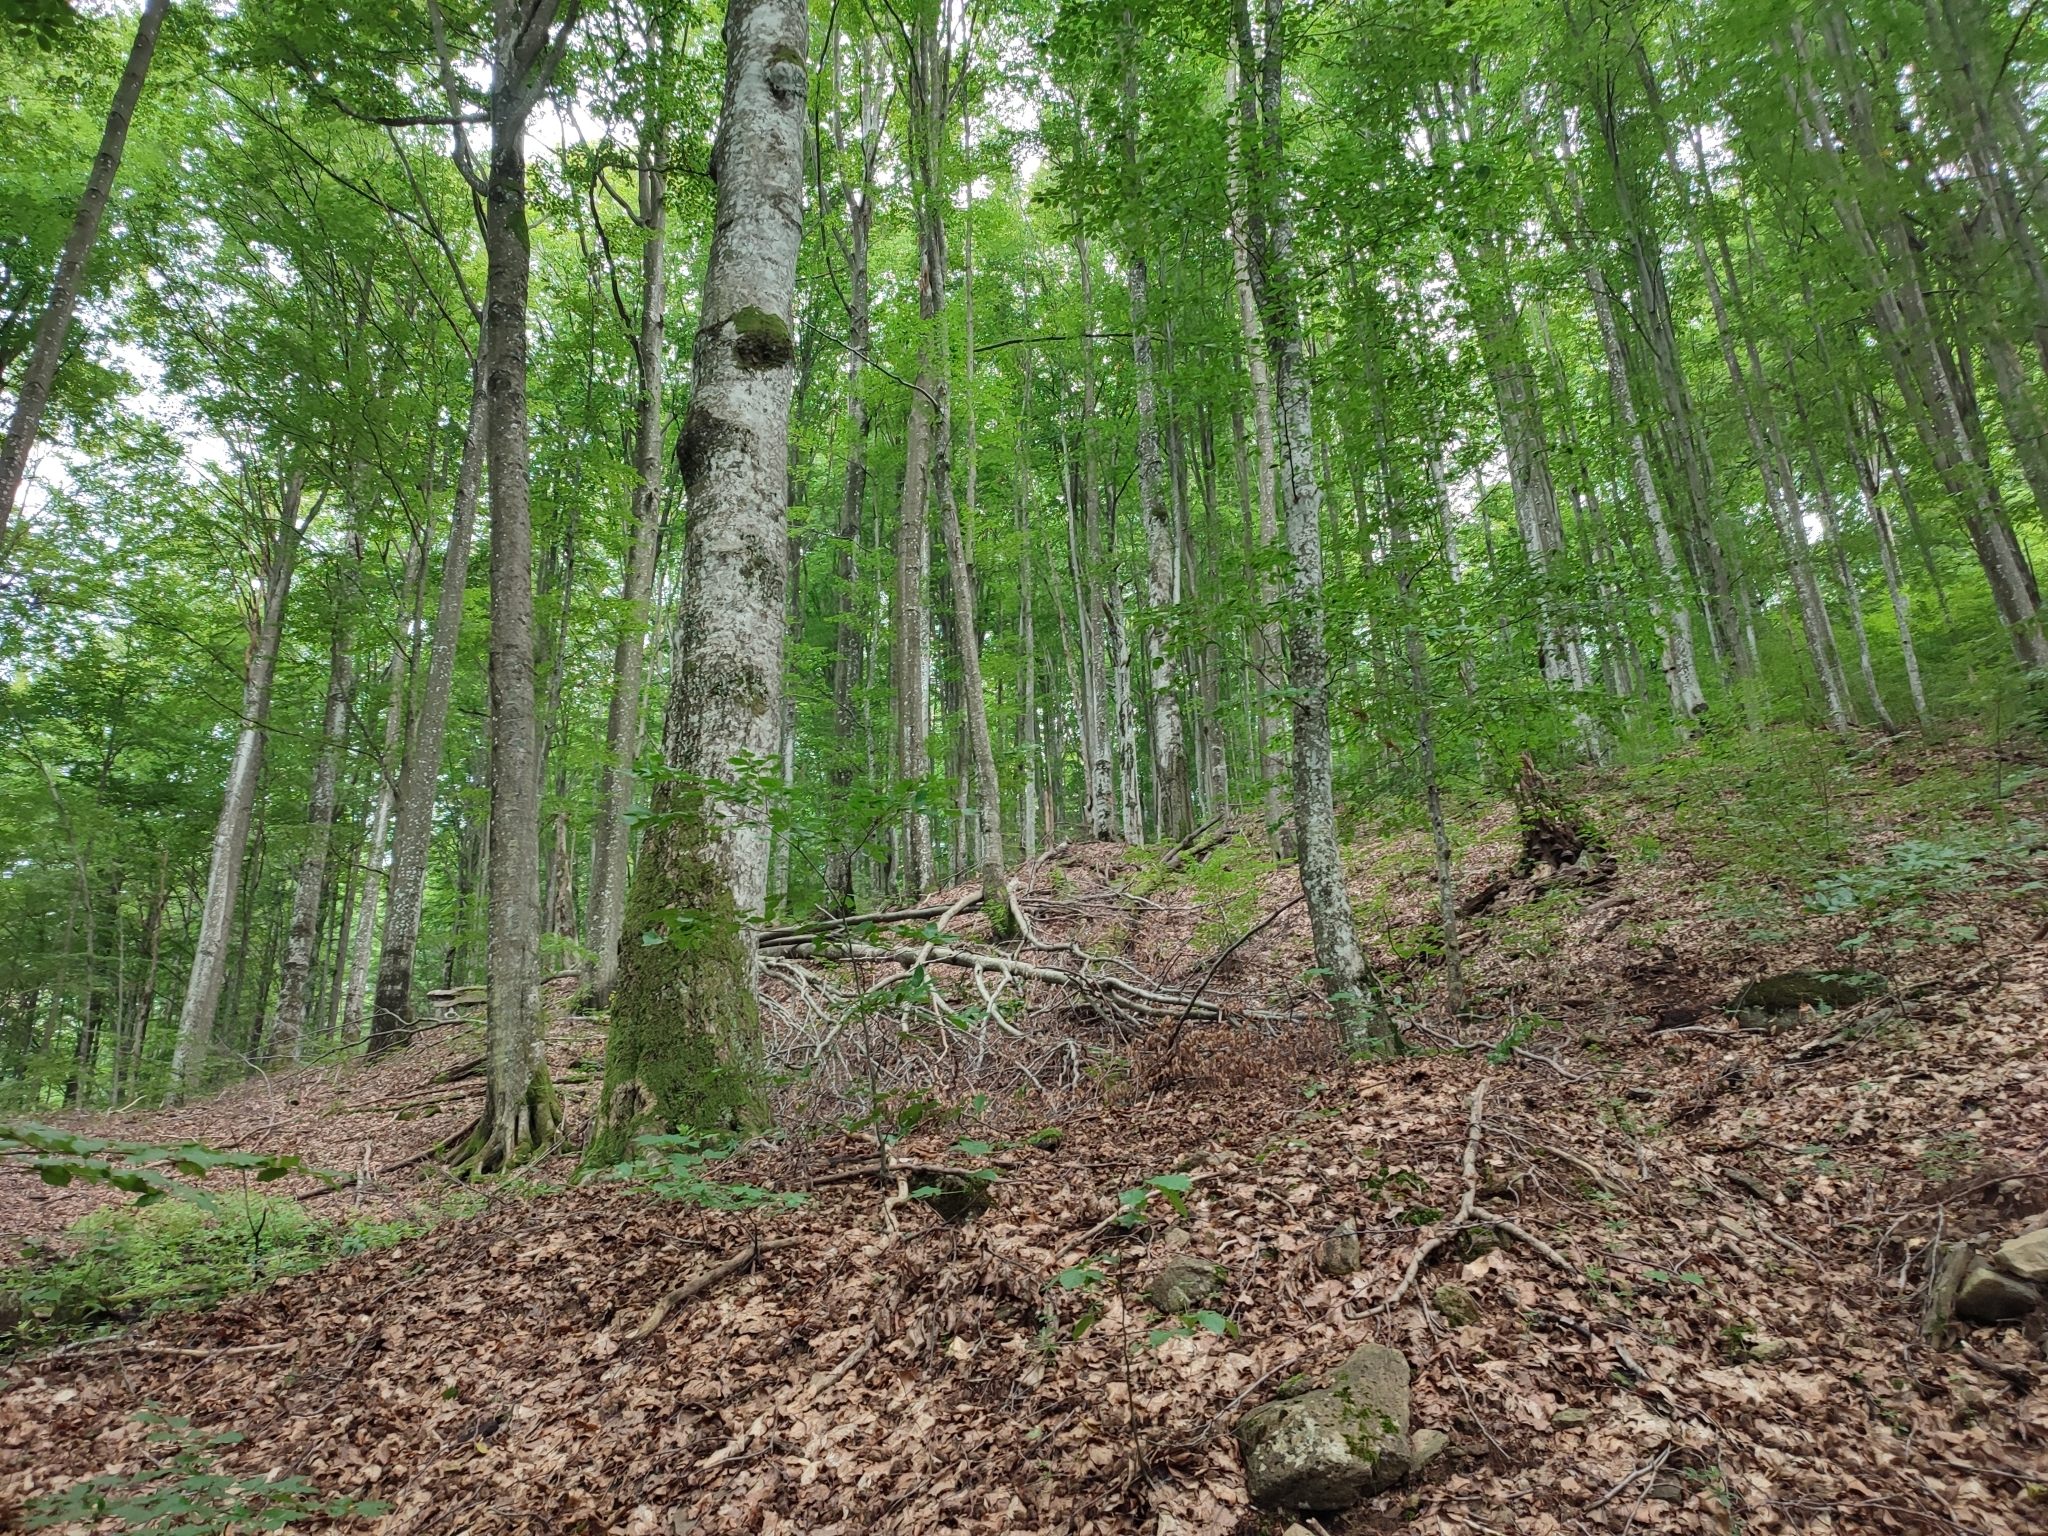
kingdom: Plantae
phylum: Tracheophyta
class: Magnoliopsida
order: Fagales
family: Fagaceae
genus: Fagus
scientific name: Fagus sylvatica
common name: Beech
